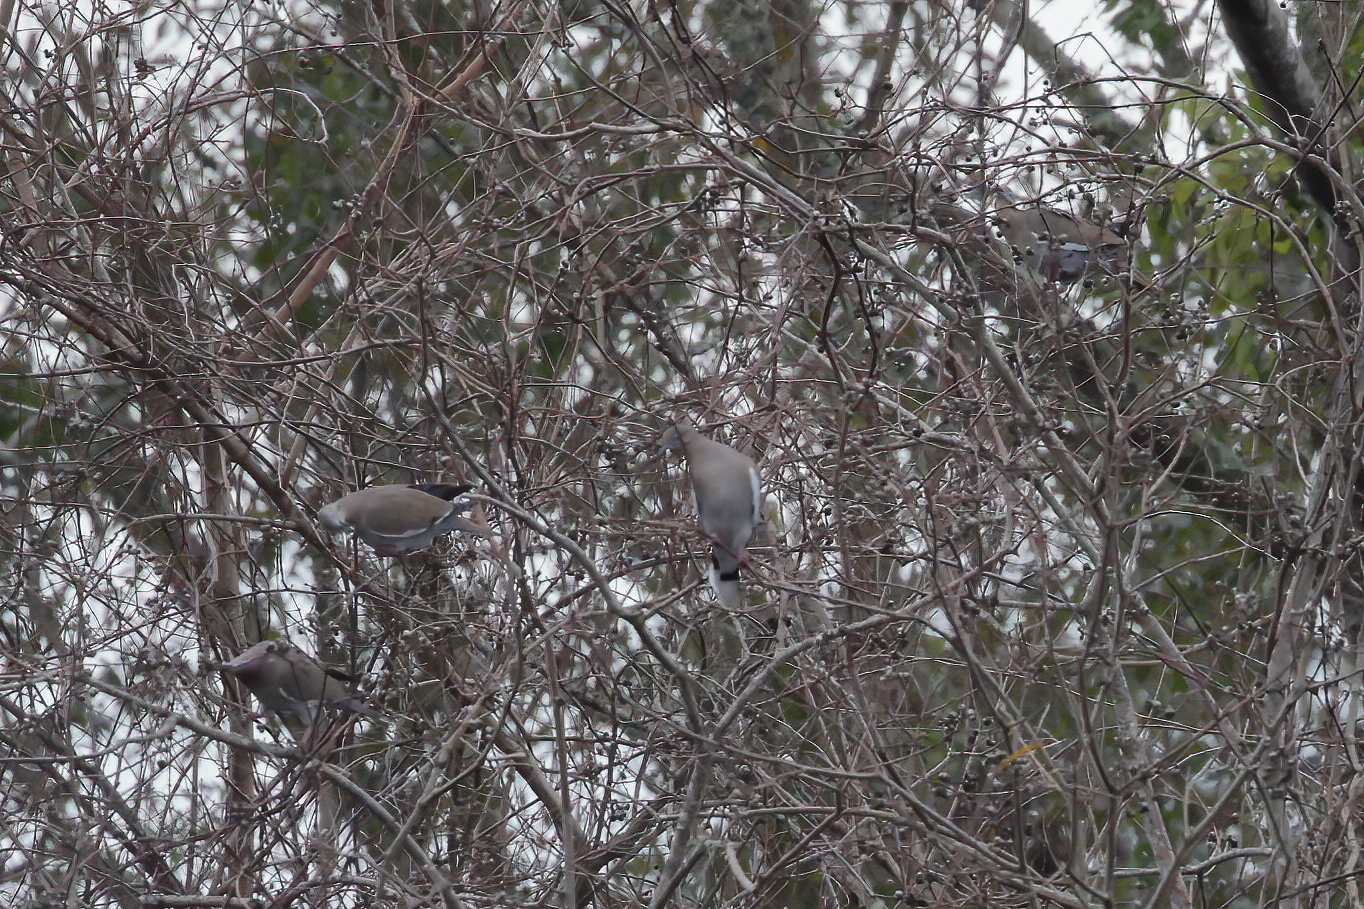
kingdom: Animalia
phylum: Chordata
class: Aves
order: Columbiformes
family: Columbidae
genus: Zenaida
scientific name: Zenaida asiatica
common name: White-winged dove
